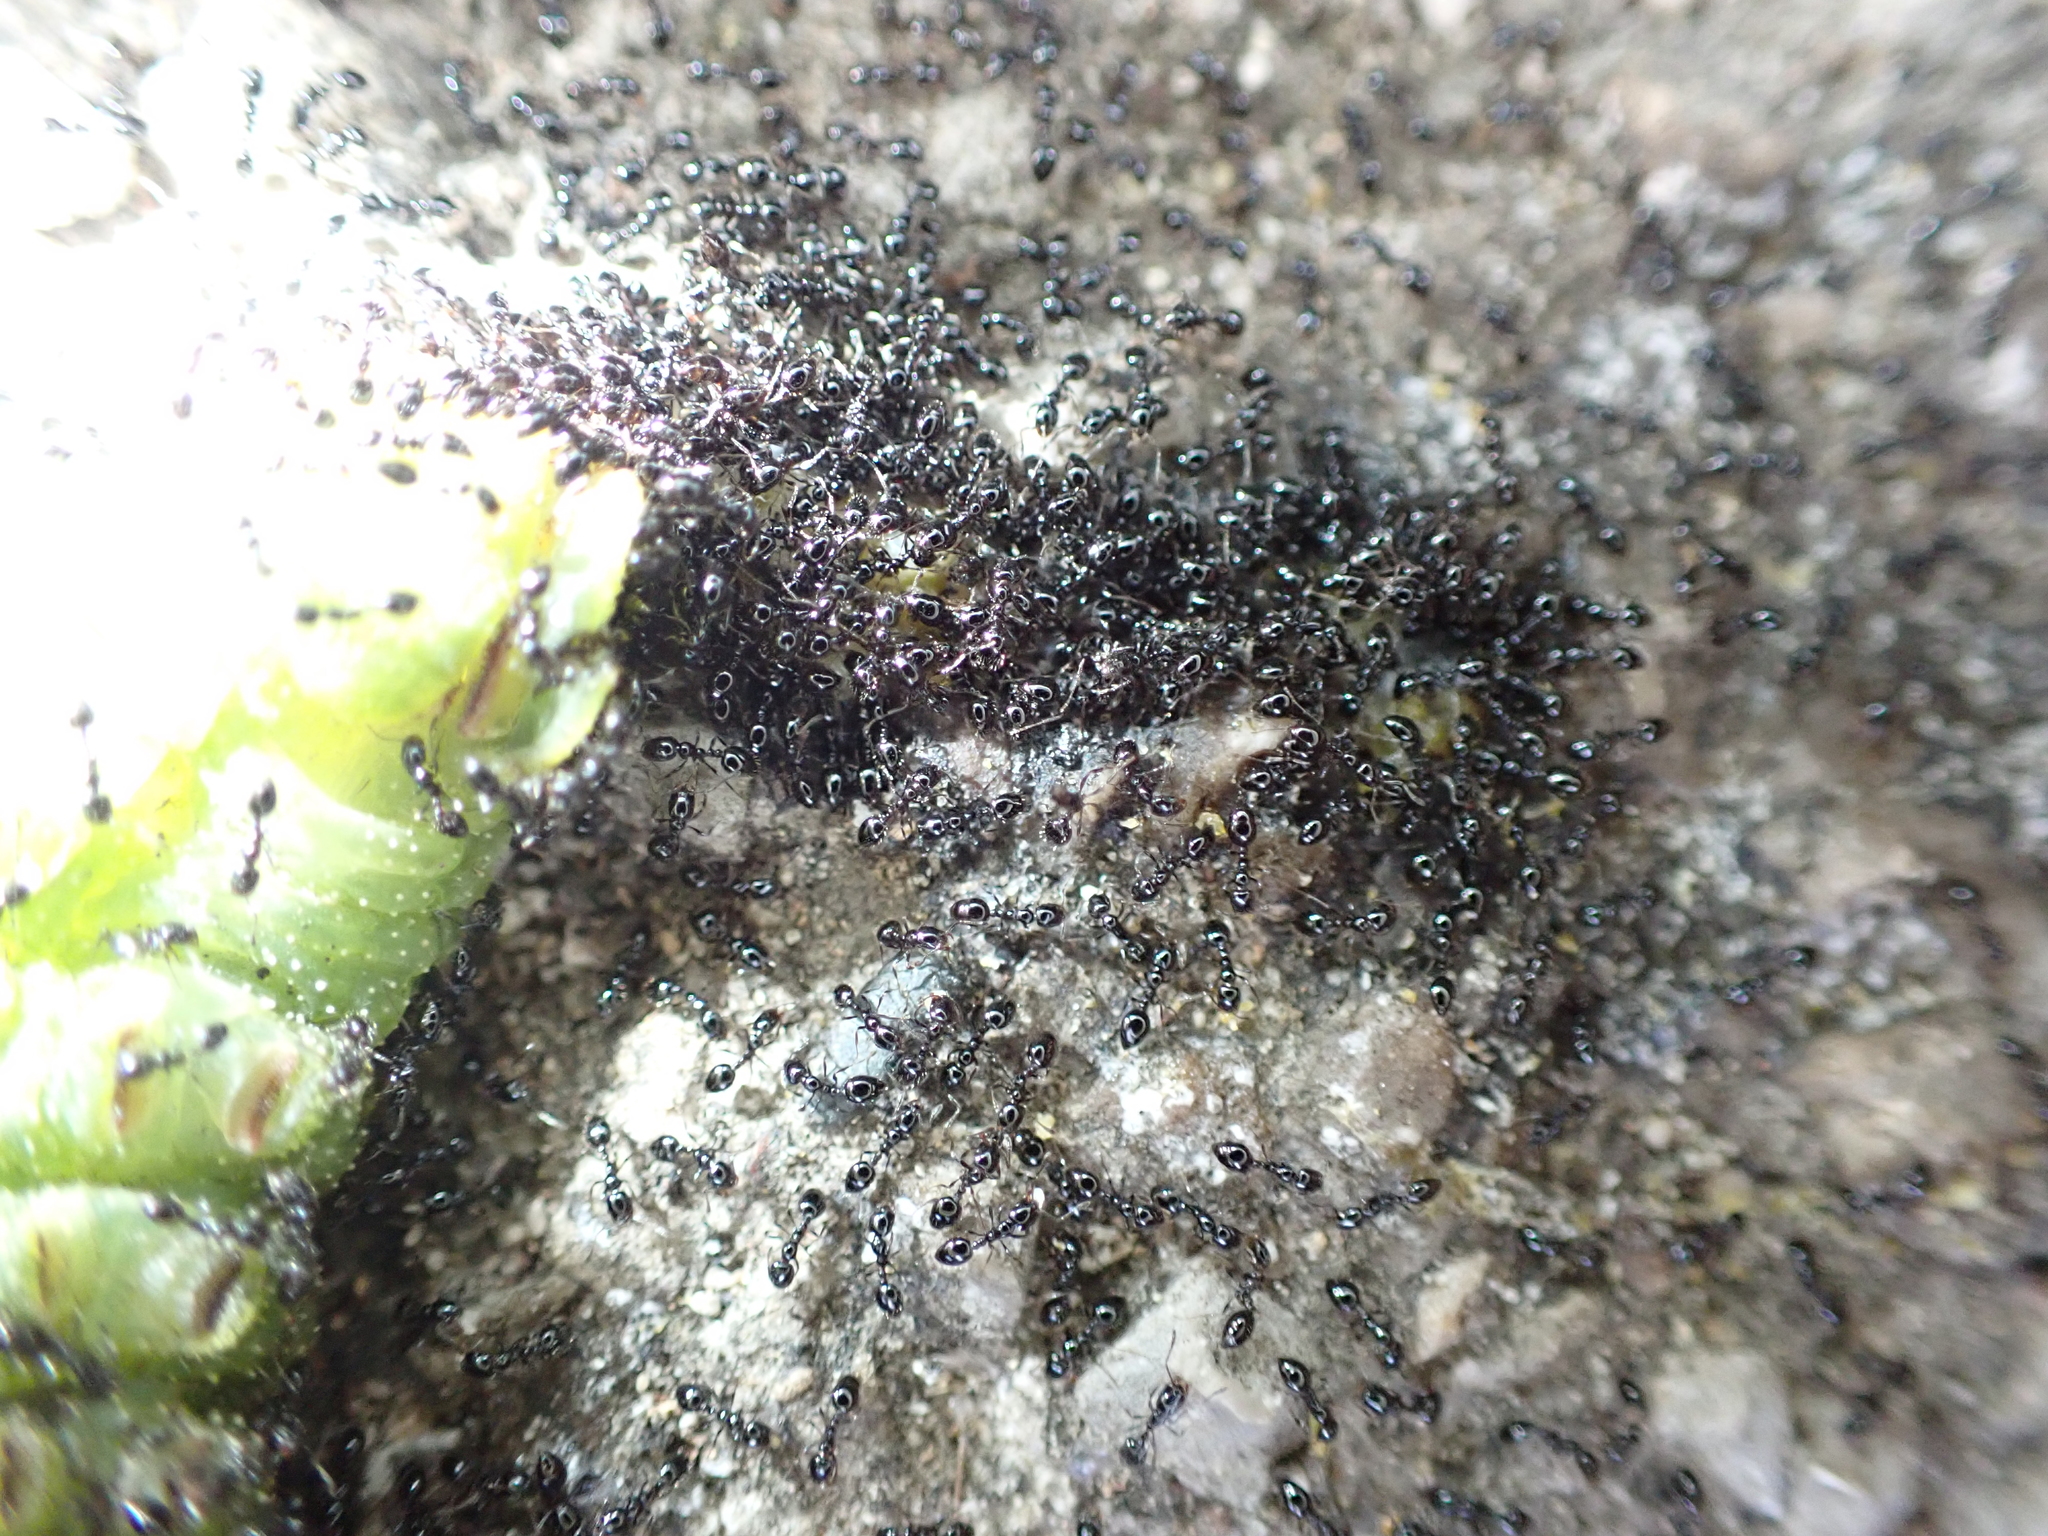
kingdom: Animalia
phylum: Arthropoda
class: Insecta
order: Hymenoptera
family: Formicidae
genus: Monomorium
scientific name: Monomorium minimum
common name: Little black ant
